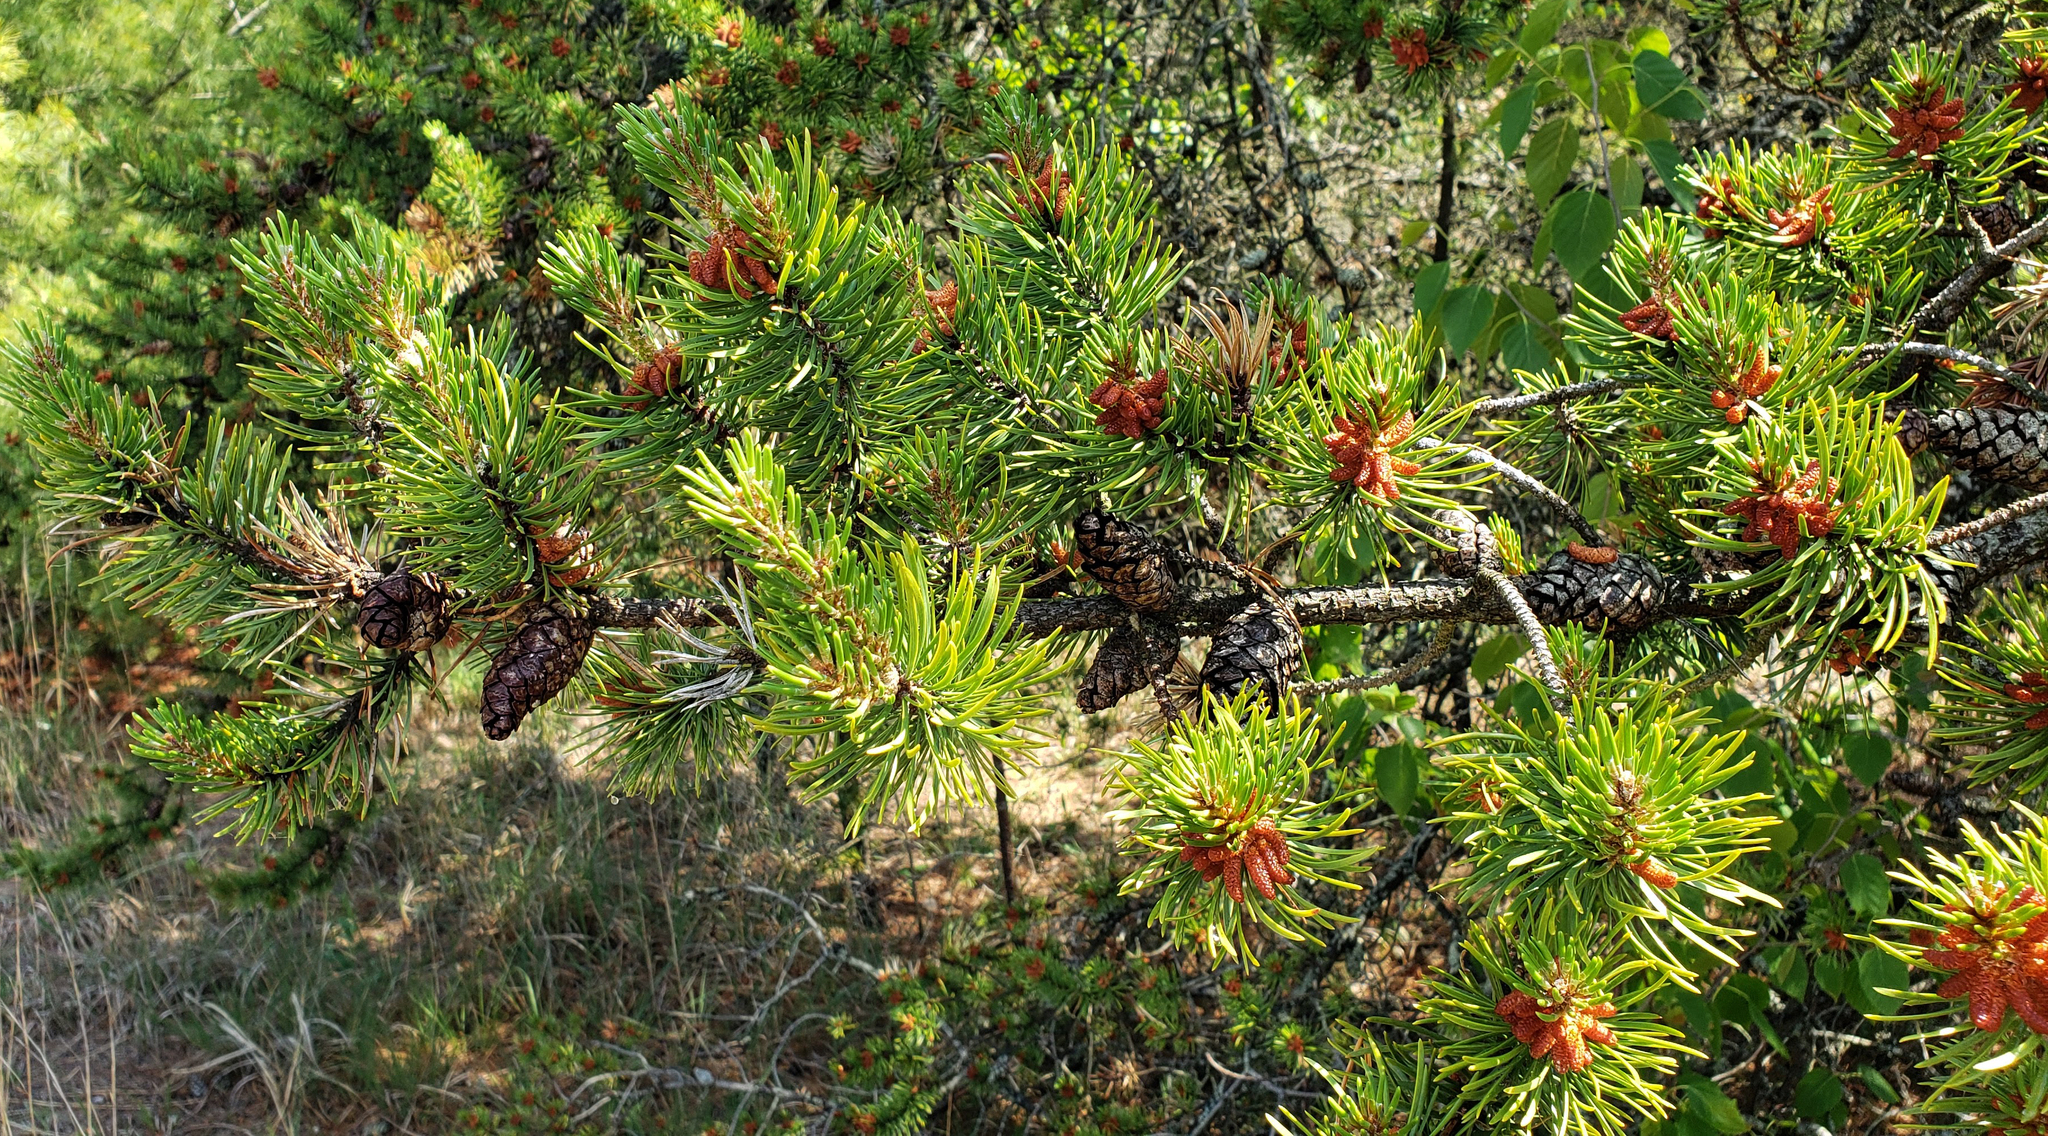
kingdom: Plantae
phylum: Tracheophyta
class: Pinopsida
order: Pinales
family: Pinaceae
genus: Pinus
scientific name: Pinus banksiana
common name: Jack pine
